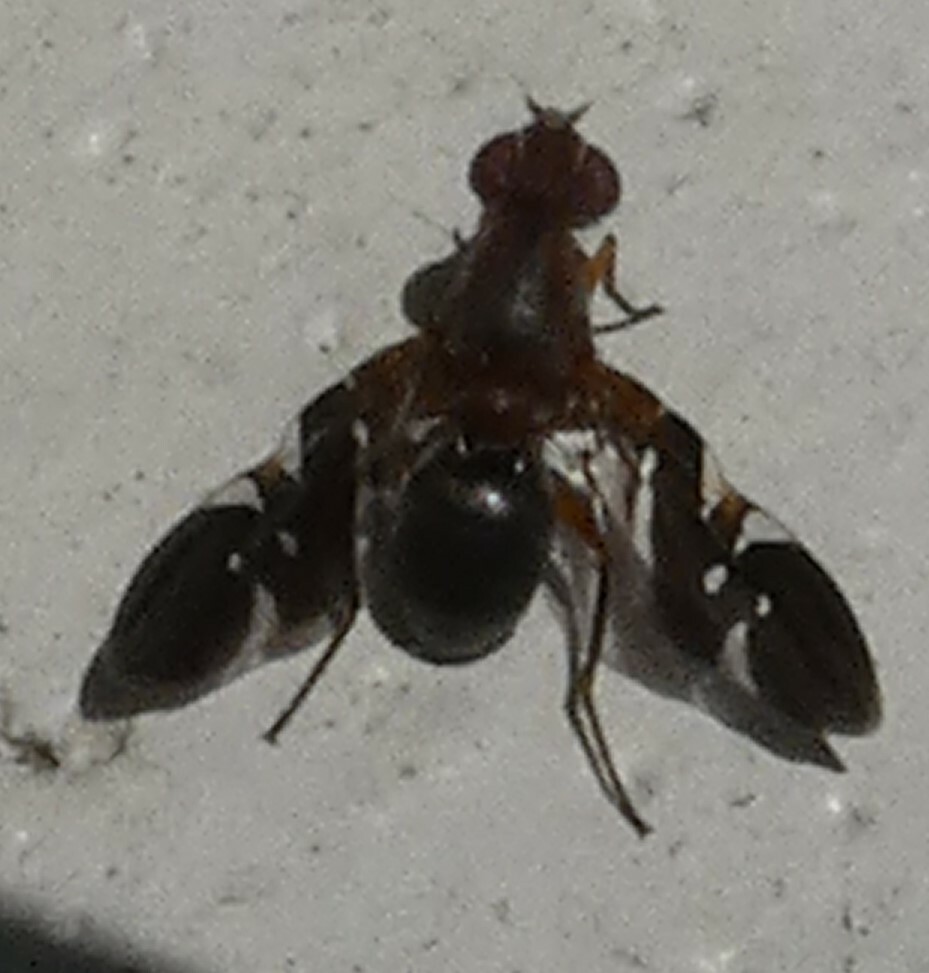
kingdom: Animalia
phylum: Arthropoda
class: Insecta
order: Diptera
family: Ulidiidae
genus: Delphinia
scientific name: Delphinia picta
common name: Common picture-winged fly
